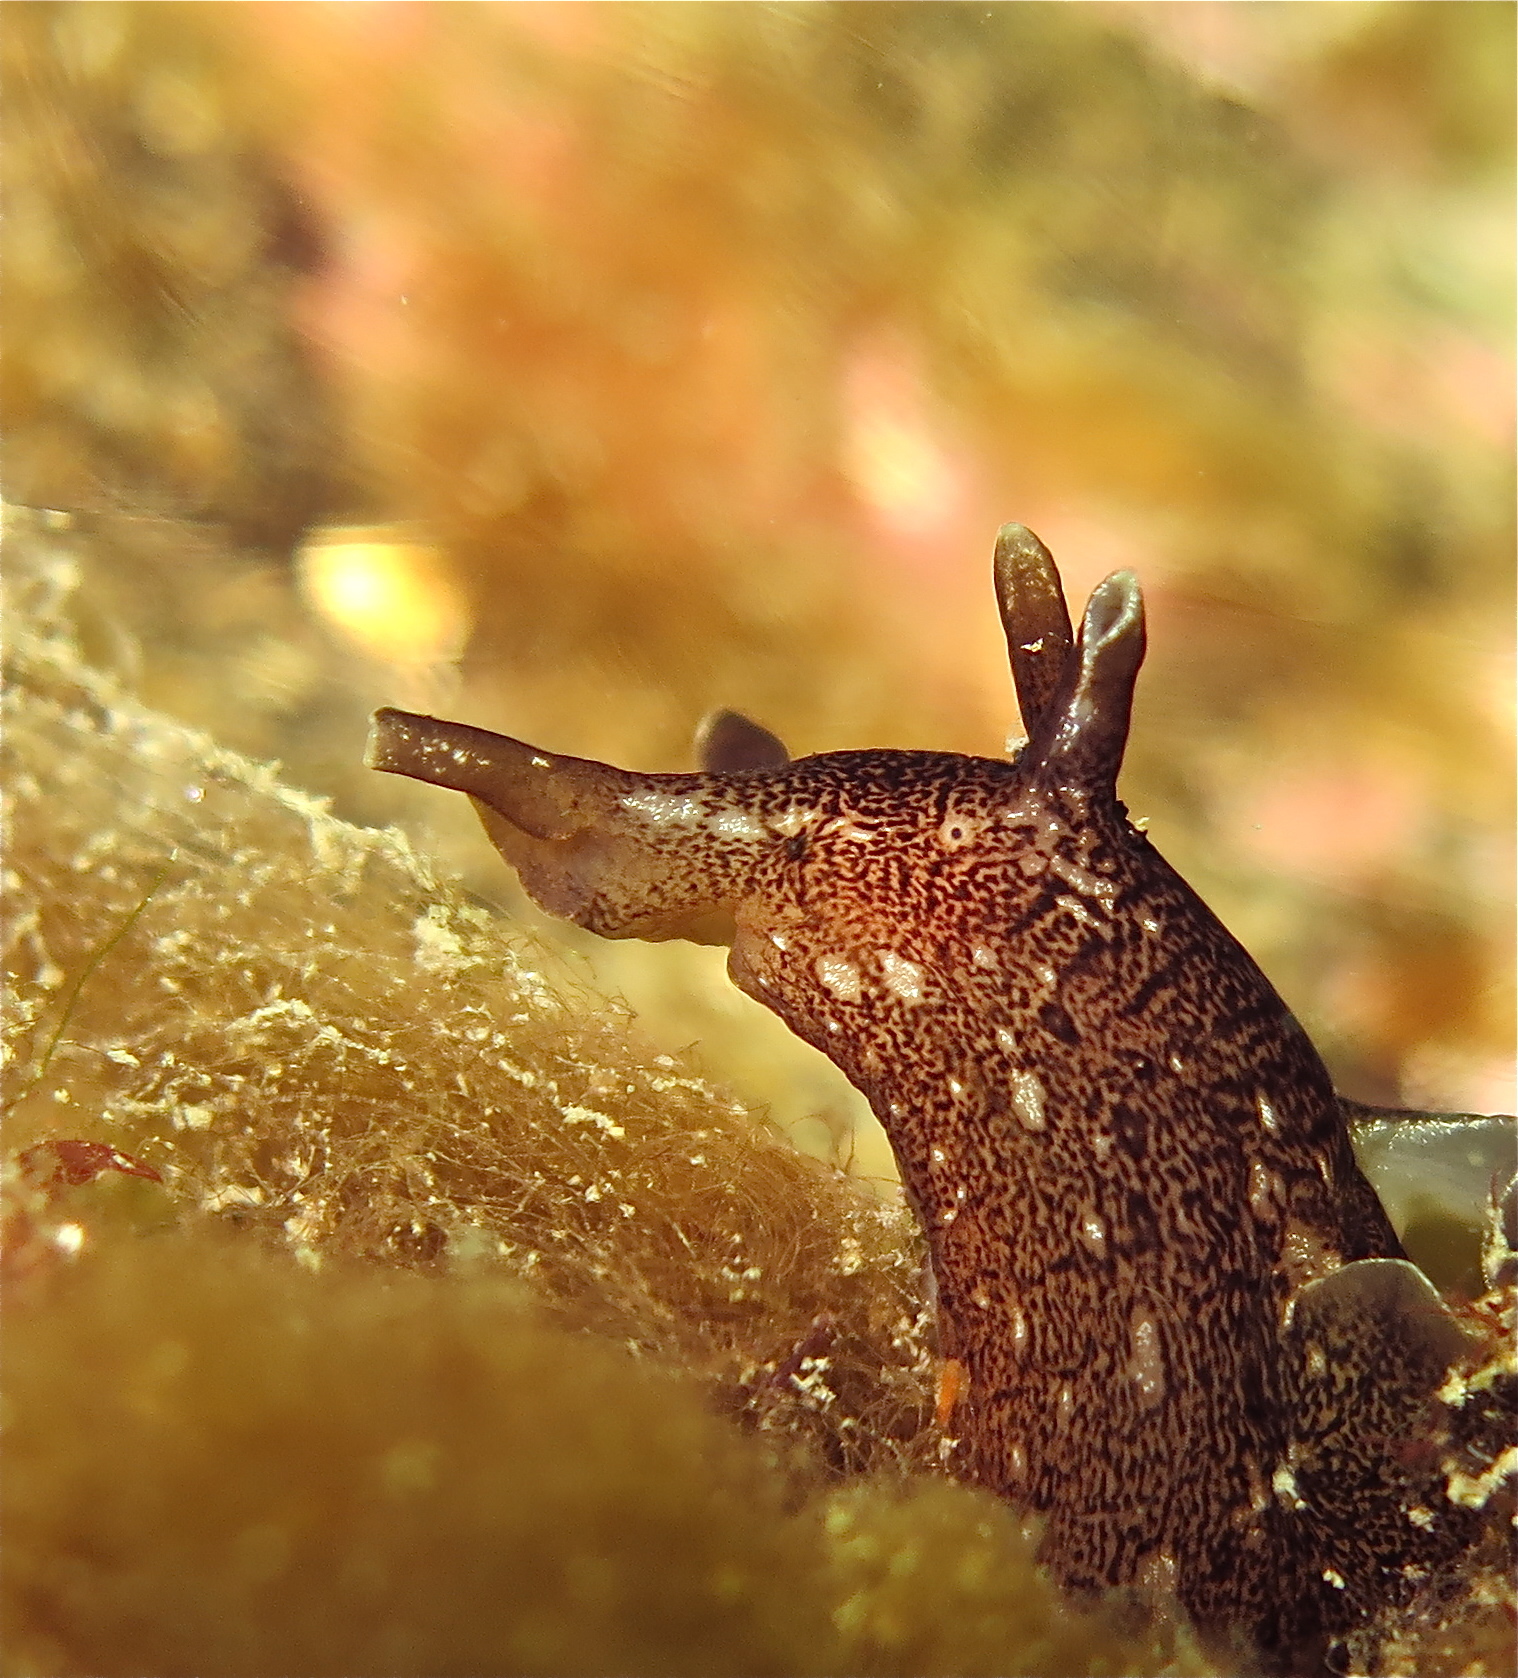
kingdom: Animalia
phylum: Mollusca
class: Gastropoda
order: Aplysiida
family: Aplysiidae
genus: Aplysia
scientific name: Aplysia punctata
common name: Common sea hare
